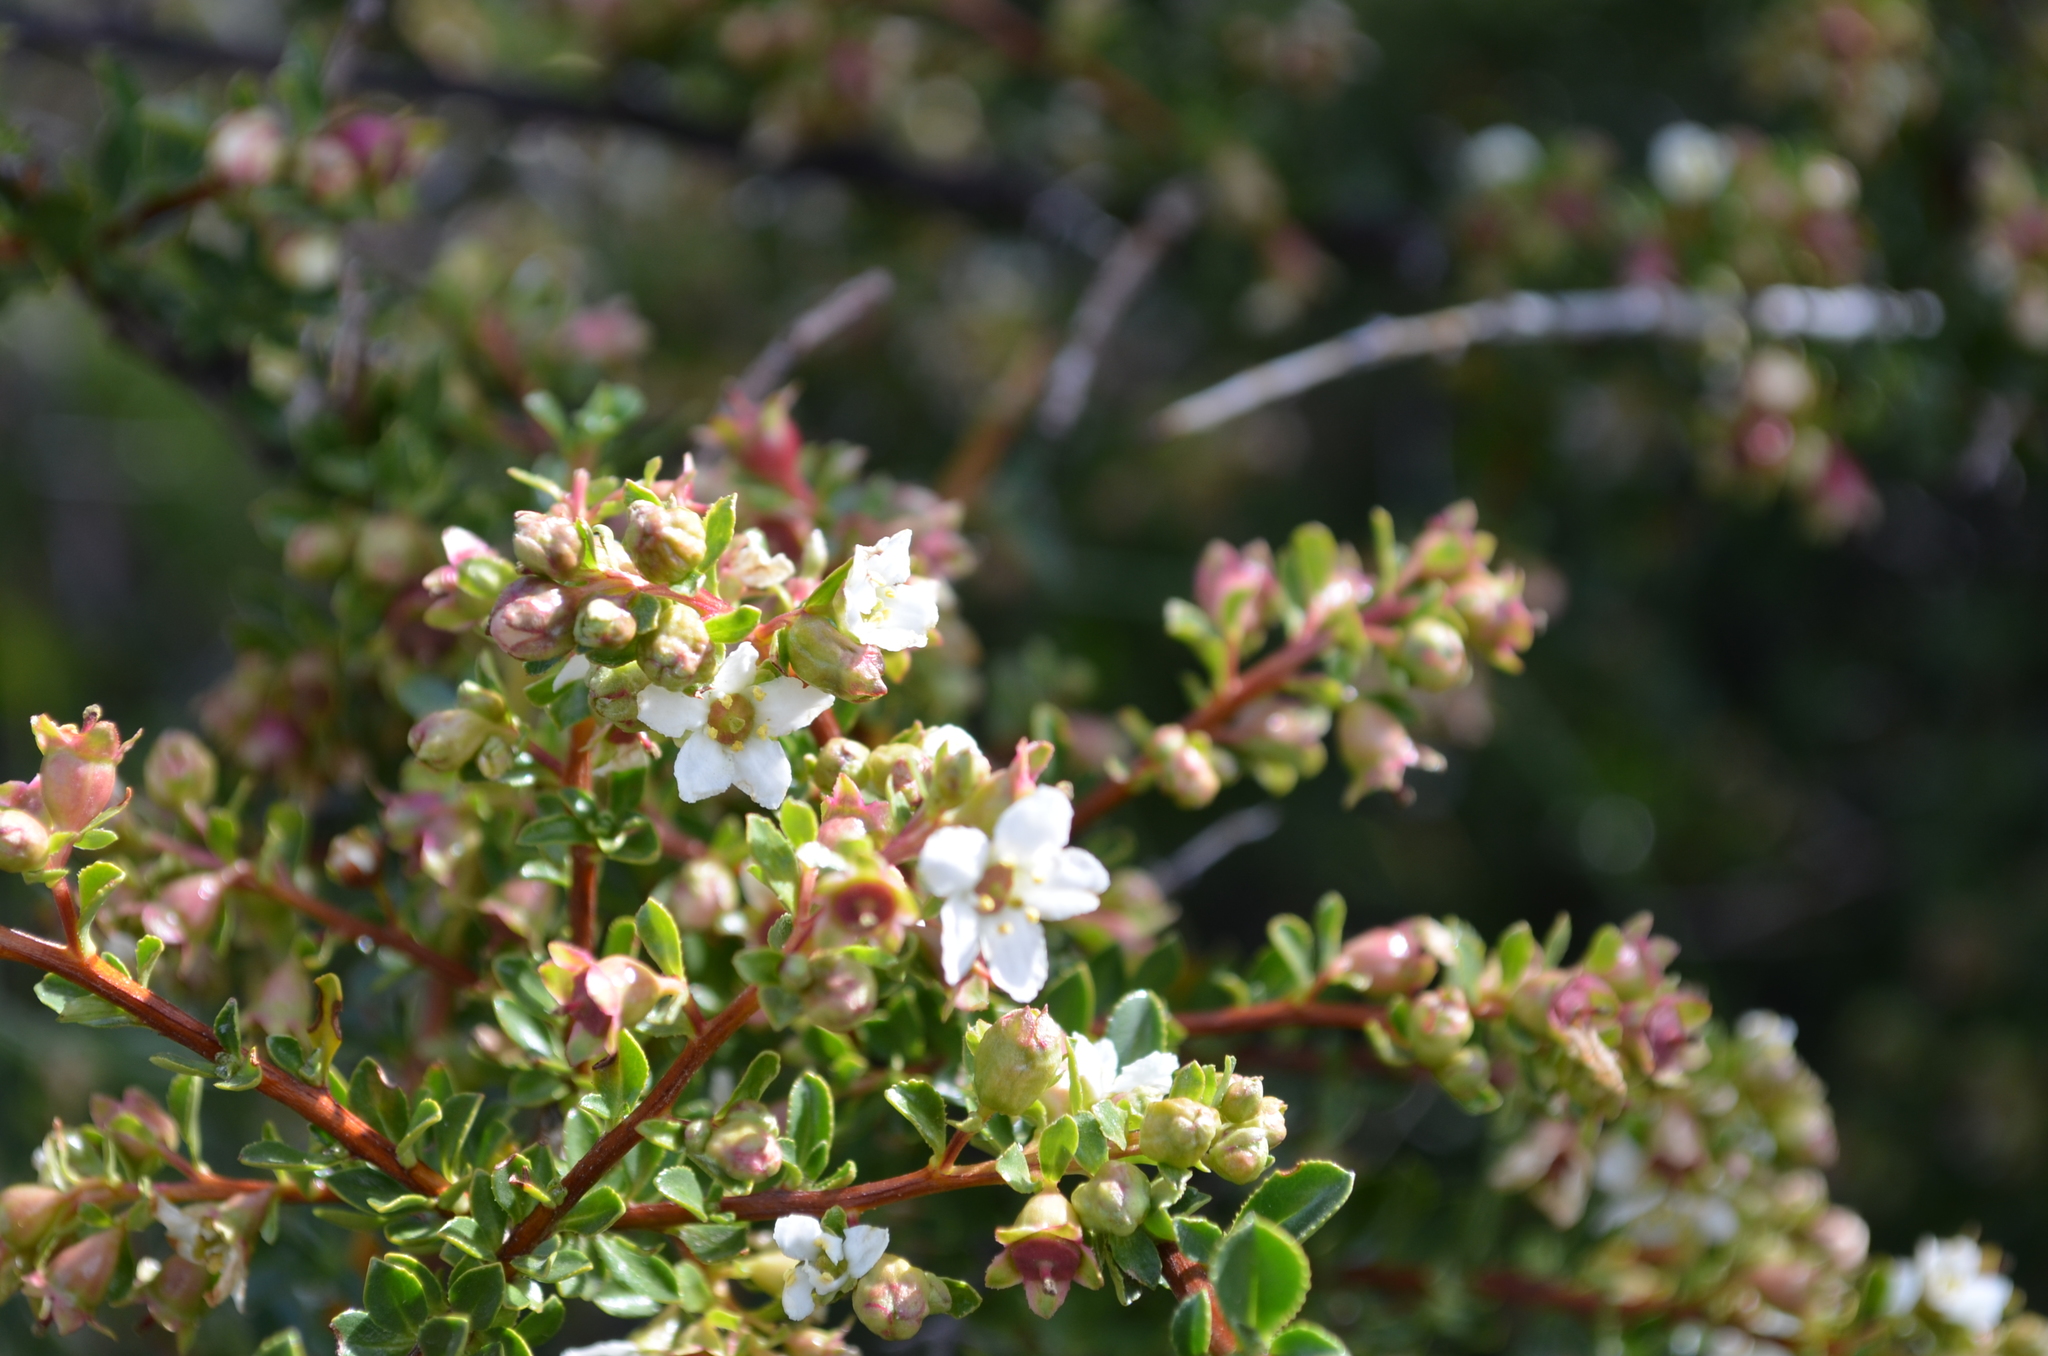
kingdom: Plantae
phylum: Tracheophyta
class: Magnoliopsida
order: Escalloniales
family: Escalloniaceae
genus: Escallonia
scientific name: Escallonia virgata
